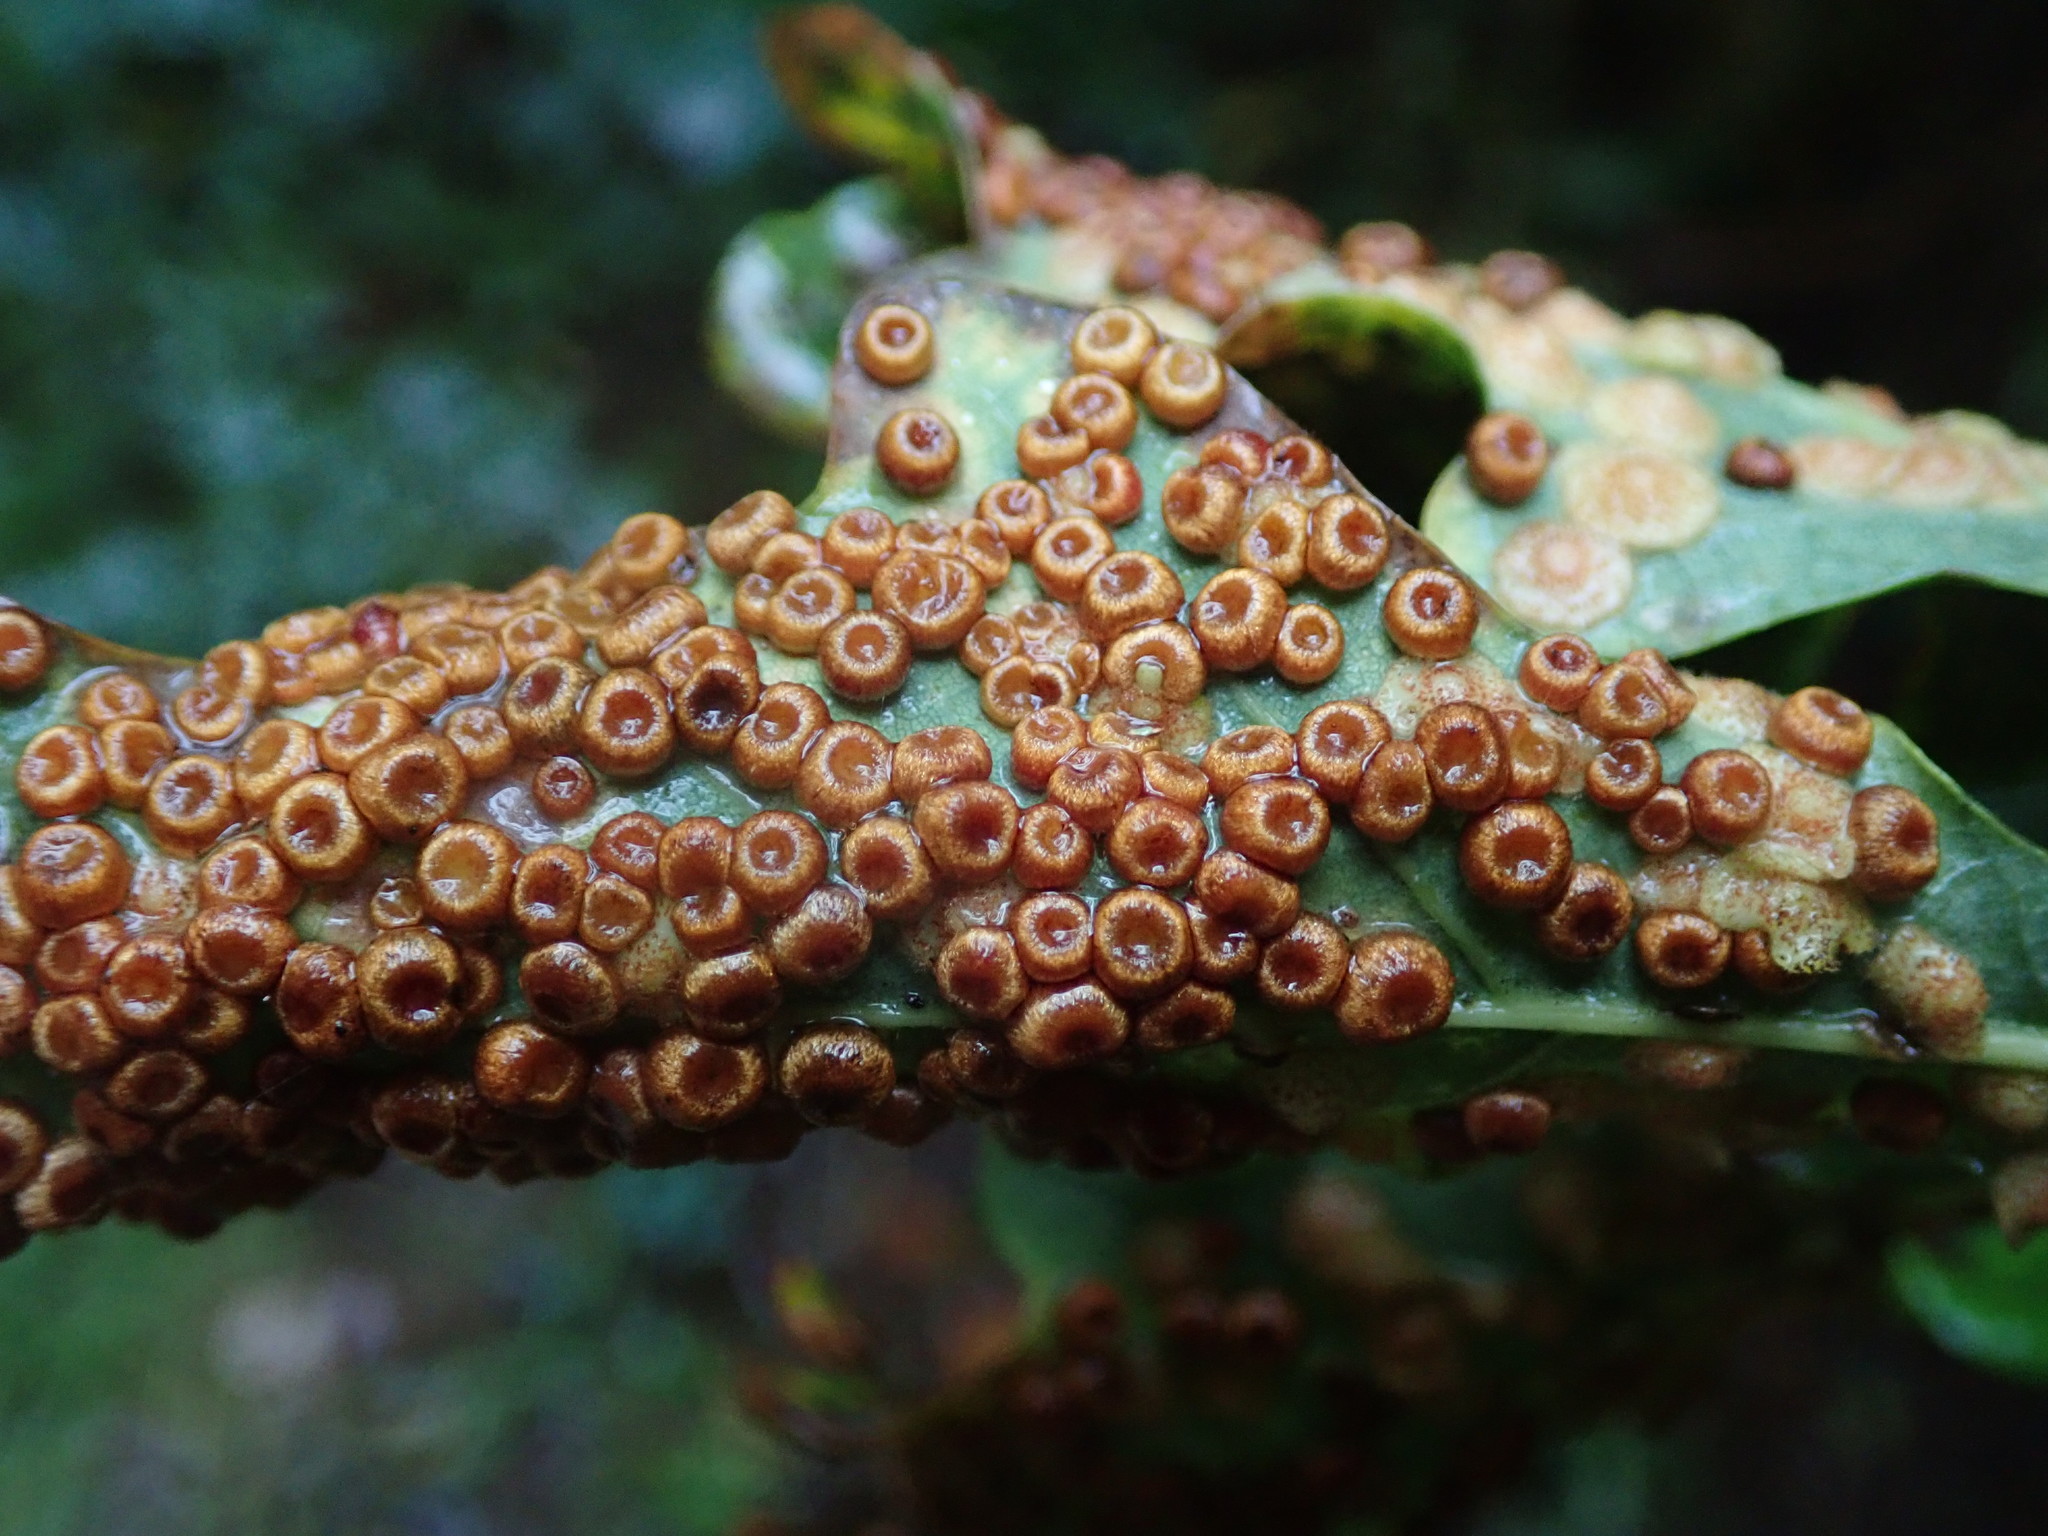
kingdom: Animalia
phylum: Arthropoda
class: Insecta
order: Hymenoptera
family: Cynipidae
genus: Neuroterus
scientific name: Neuroterus numismalis
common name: Silk-button spangle gall
